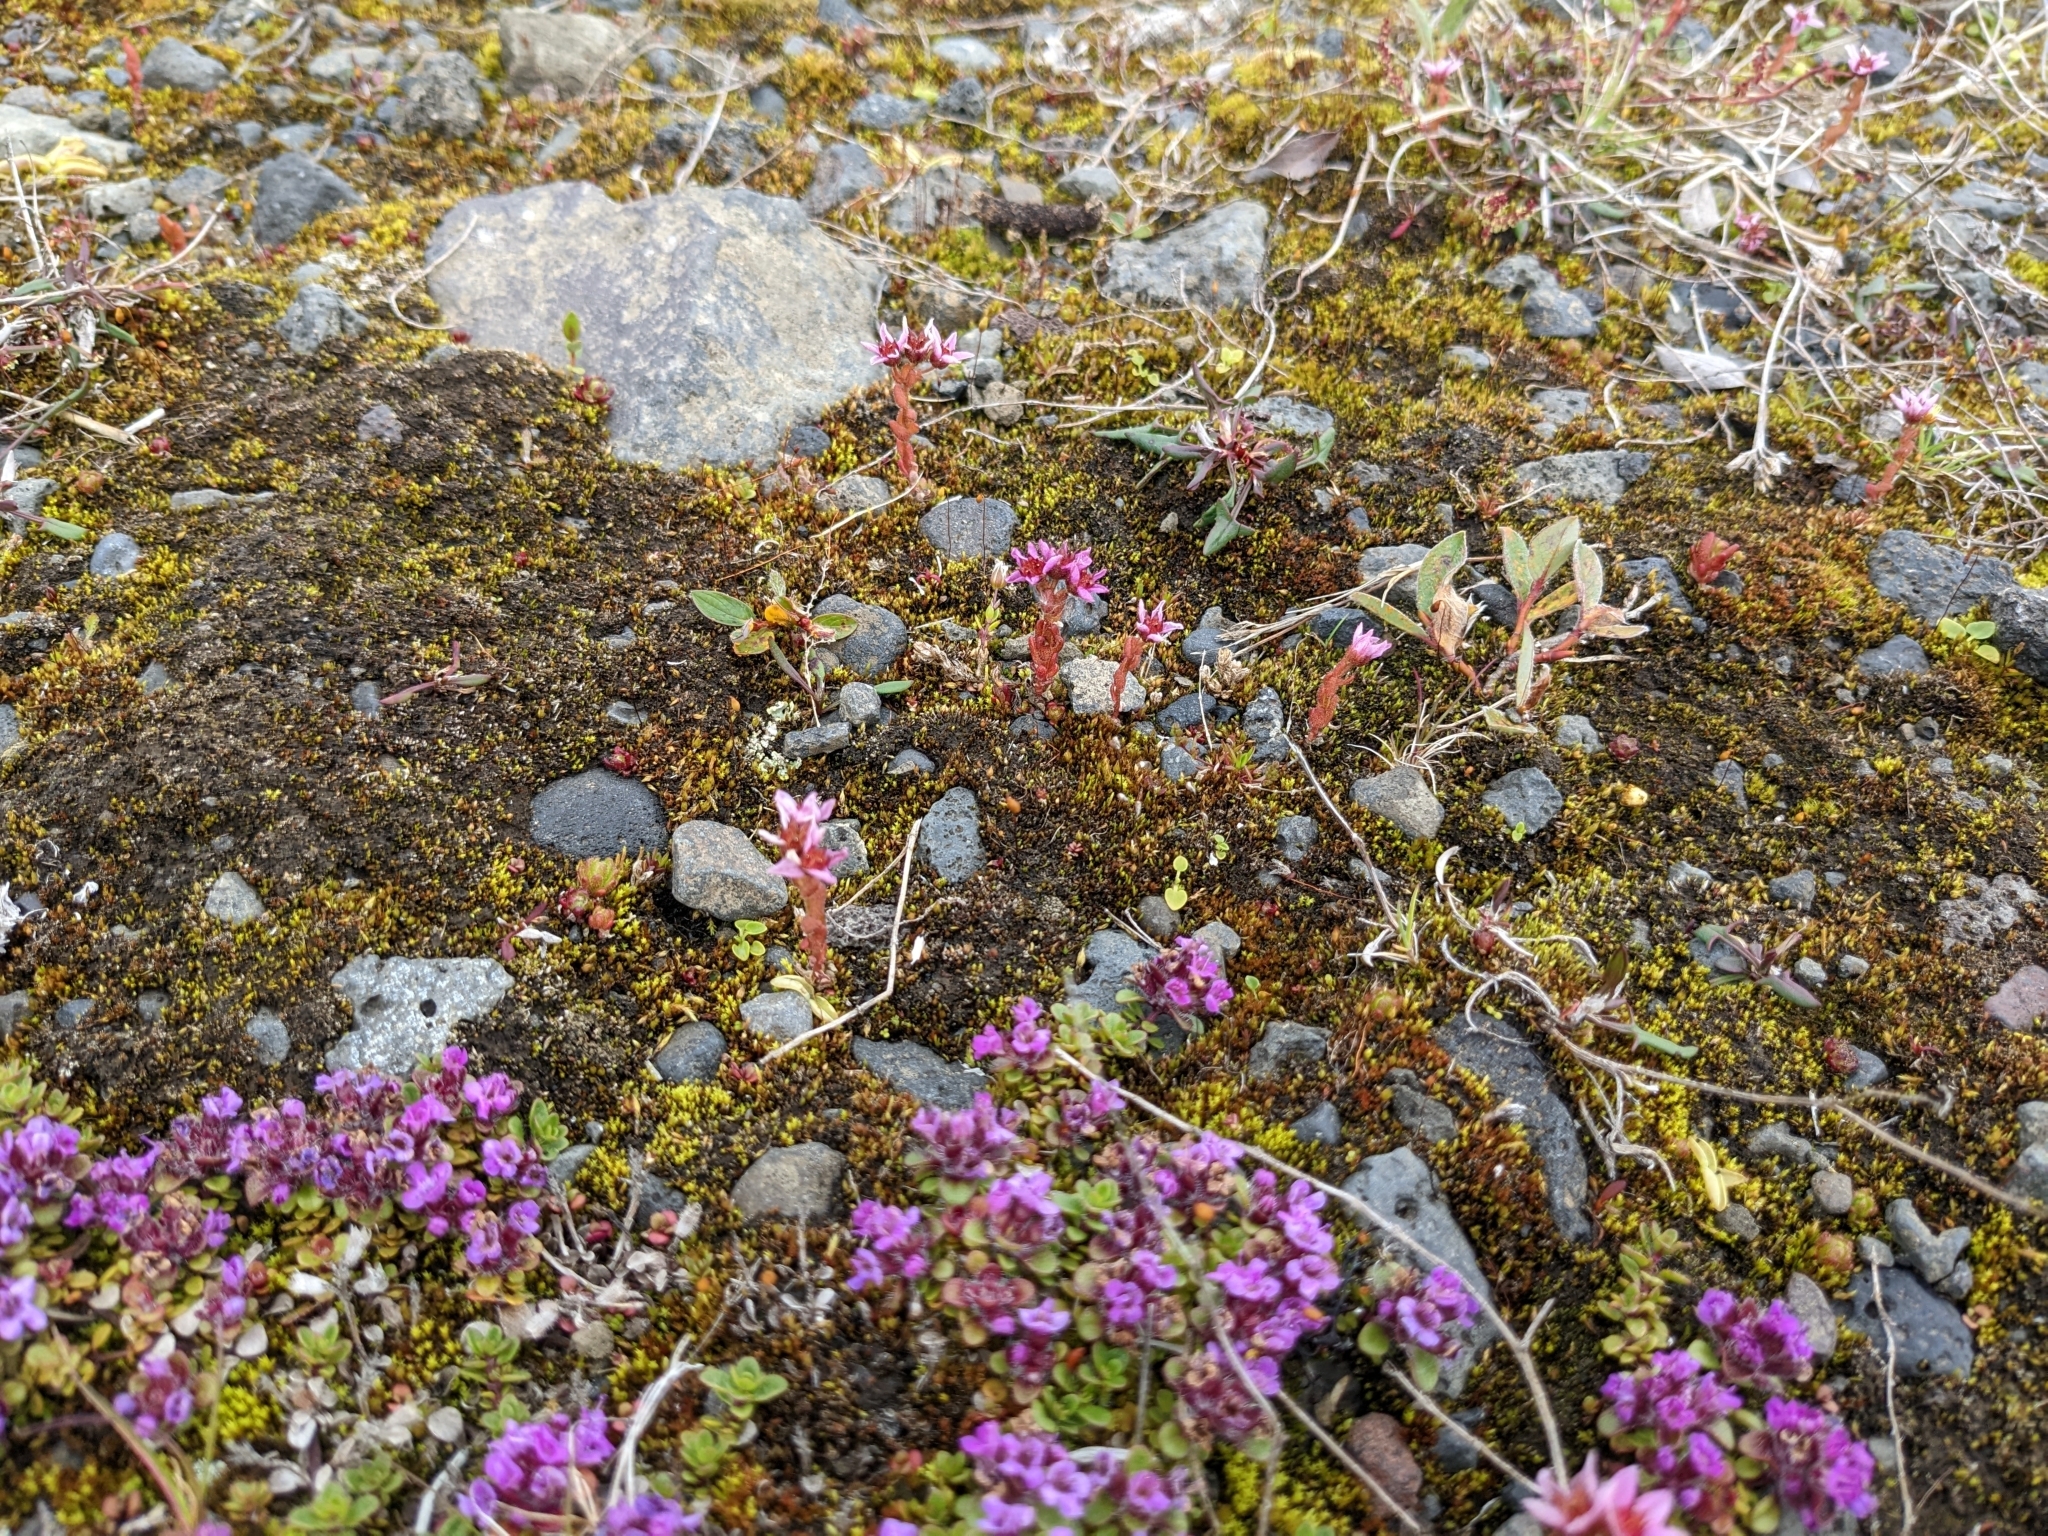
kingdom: Plantae
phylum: Tracheophyta
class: Magnoliopsida
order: Saxifragales
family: Crassulaceae
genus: Sedum
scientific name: Sedum villosum
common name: Hairy stonecrop
